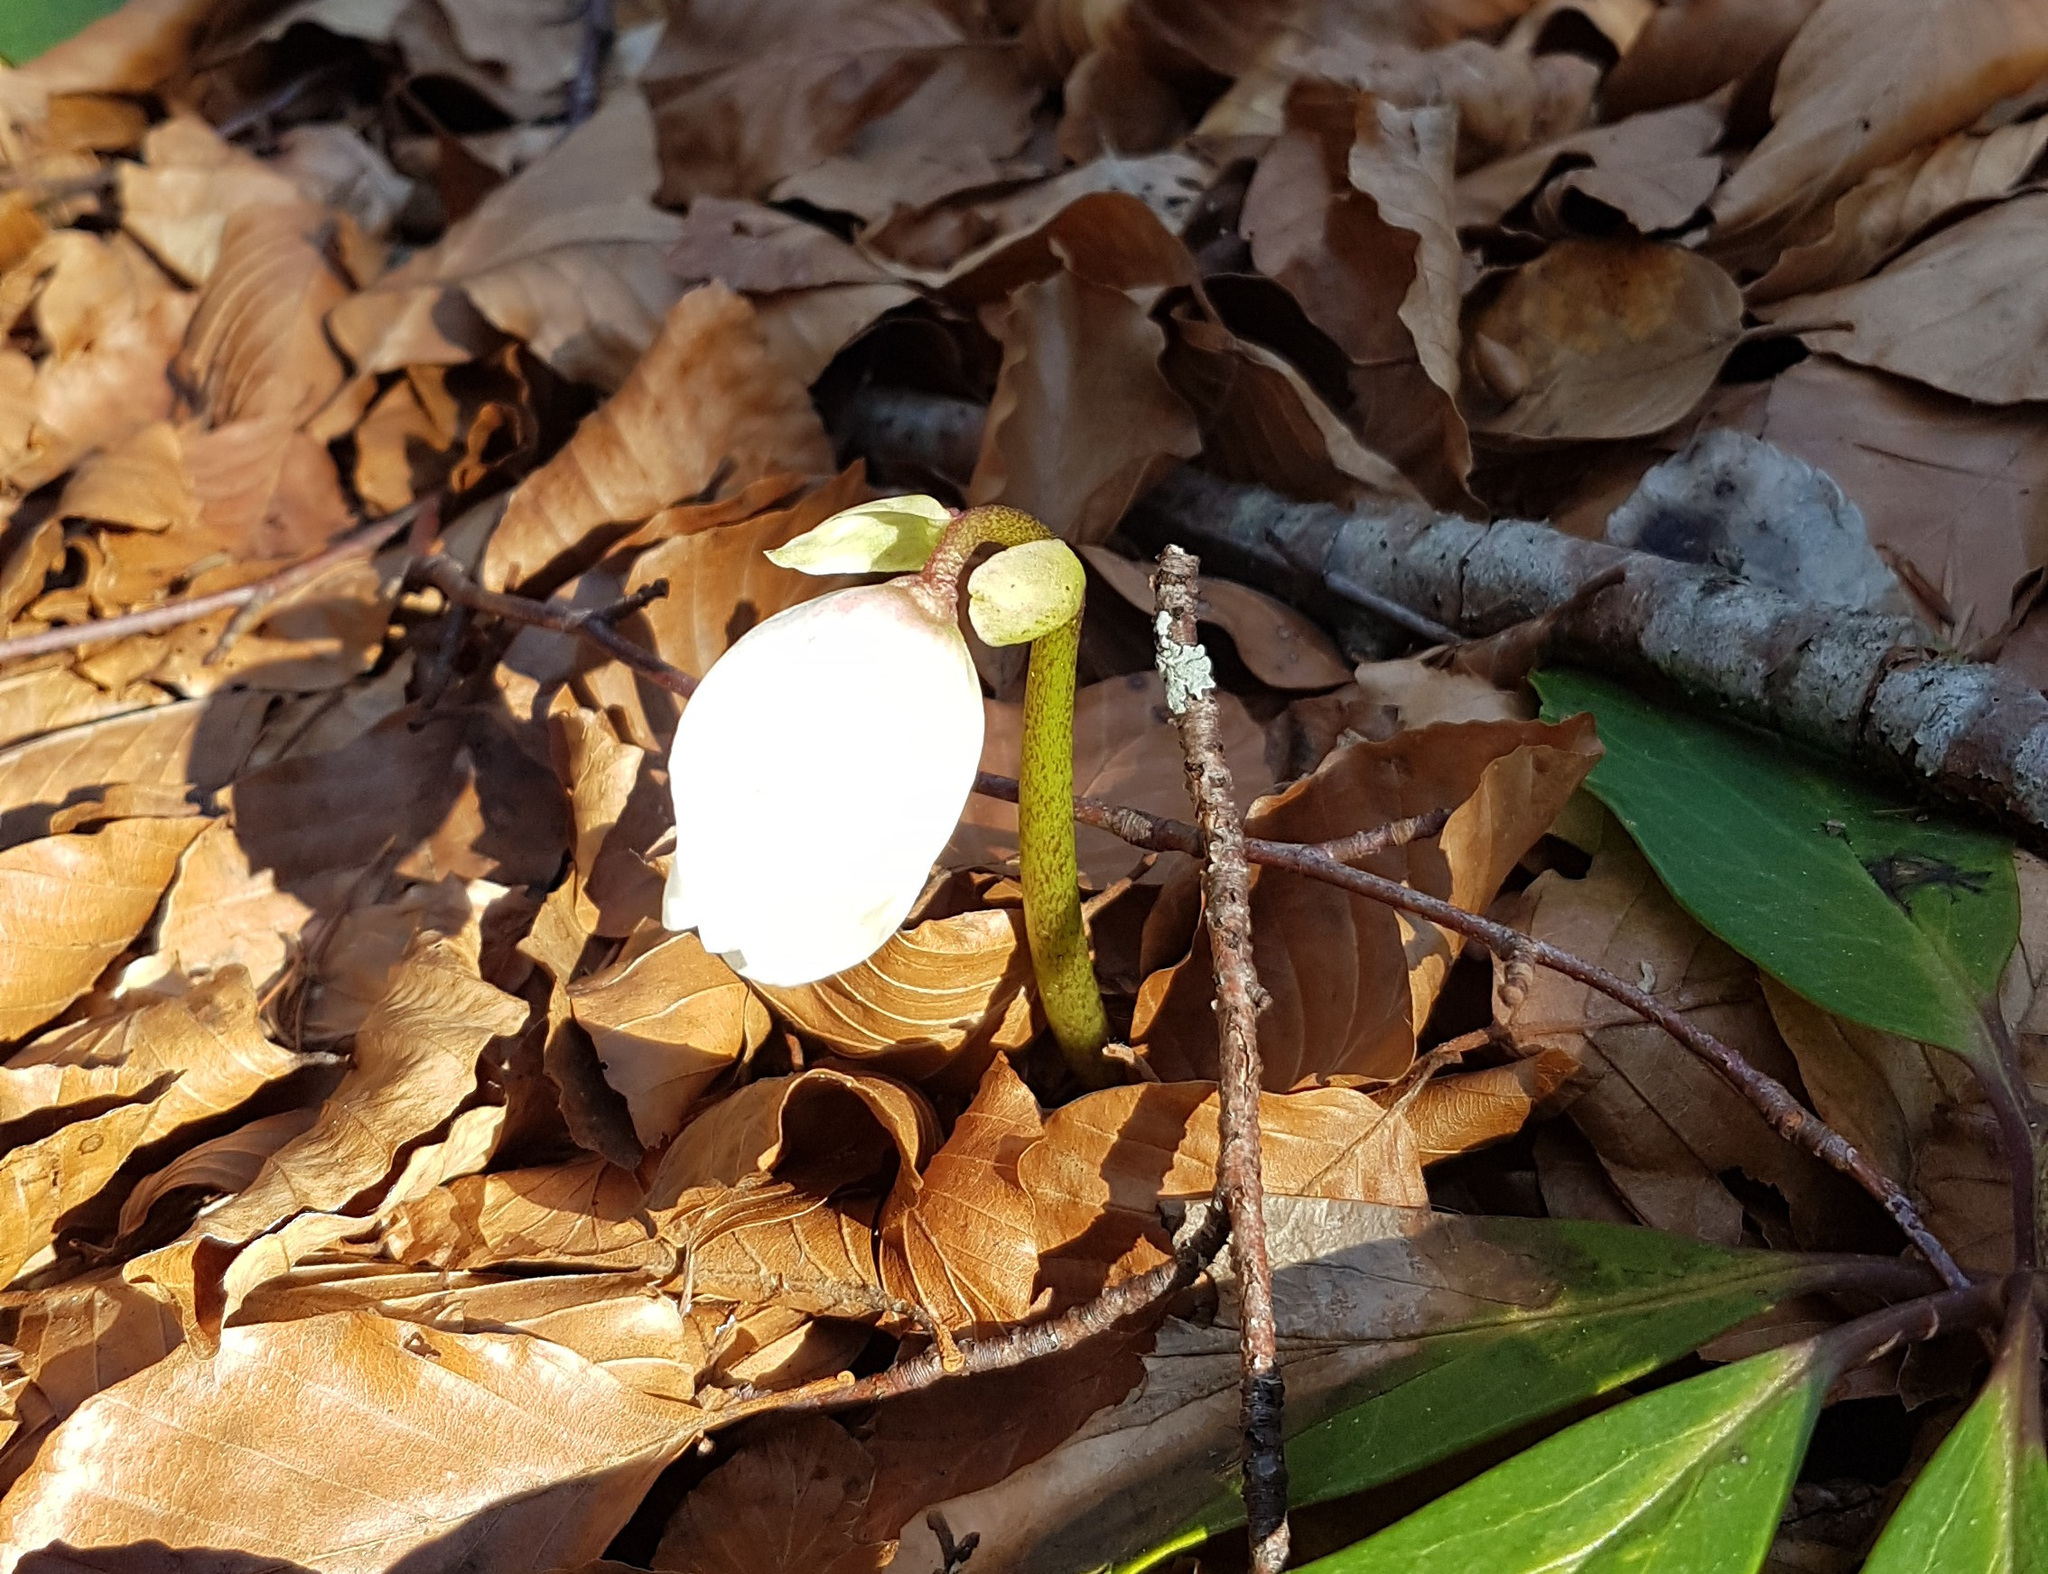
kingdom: Plantae
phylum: Tracheophyta
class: Magnoliopsida
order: Ranunculales
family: Ranunculaceae
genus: Helleborus
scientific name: Helleborus niger
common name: Black hellebore
